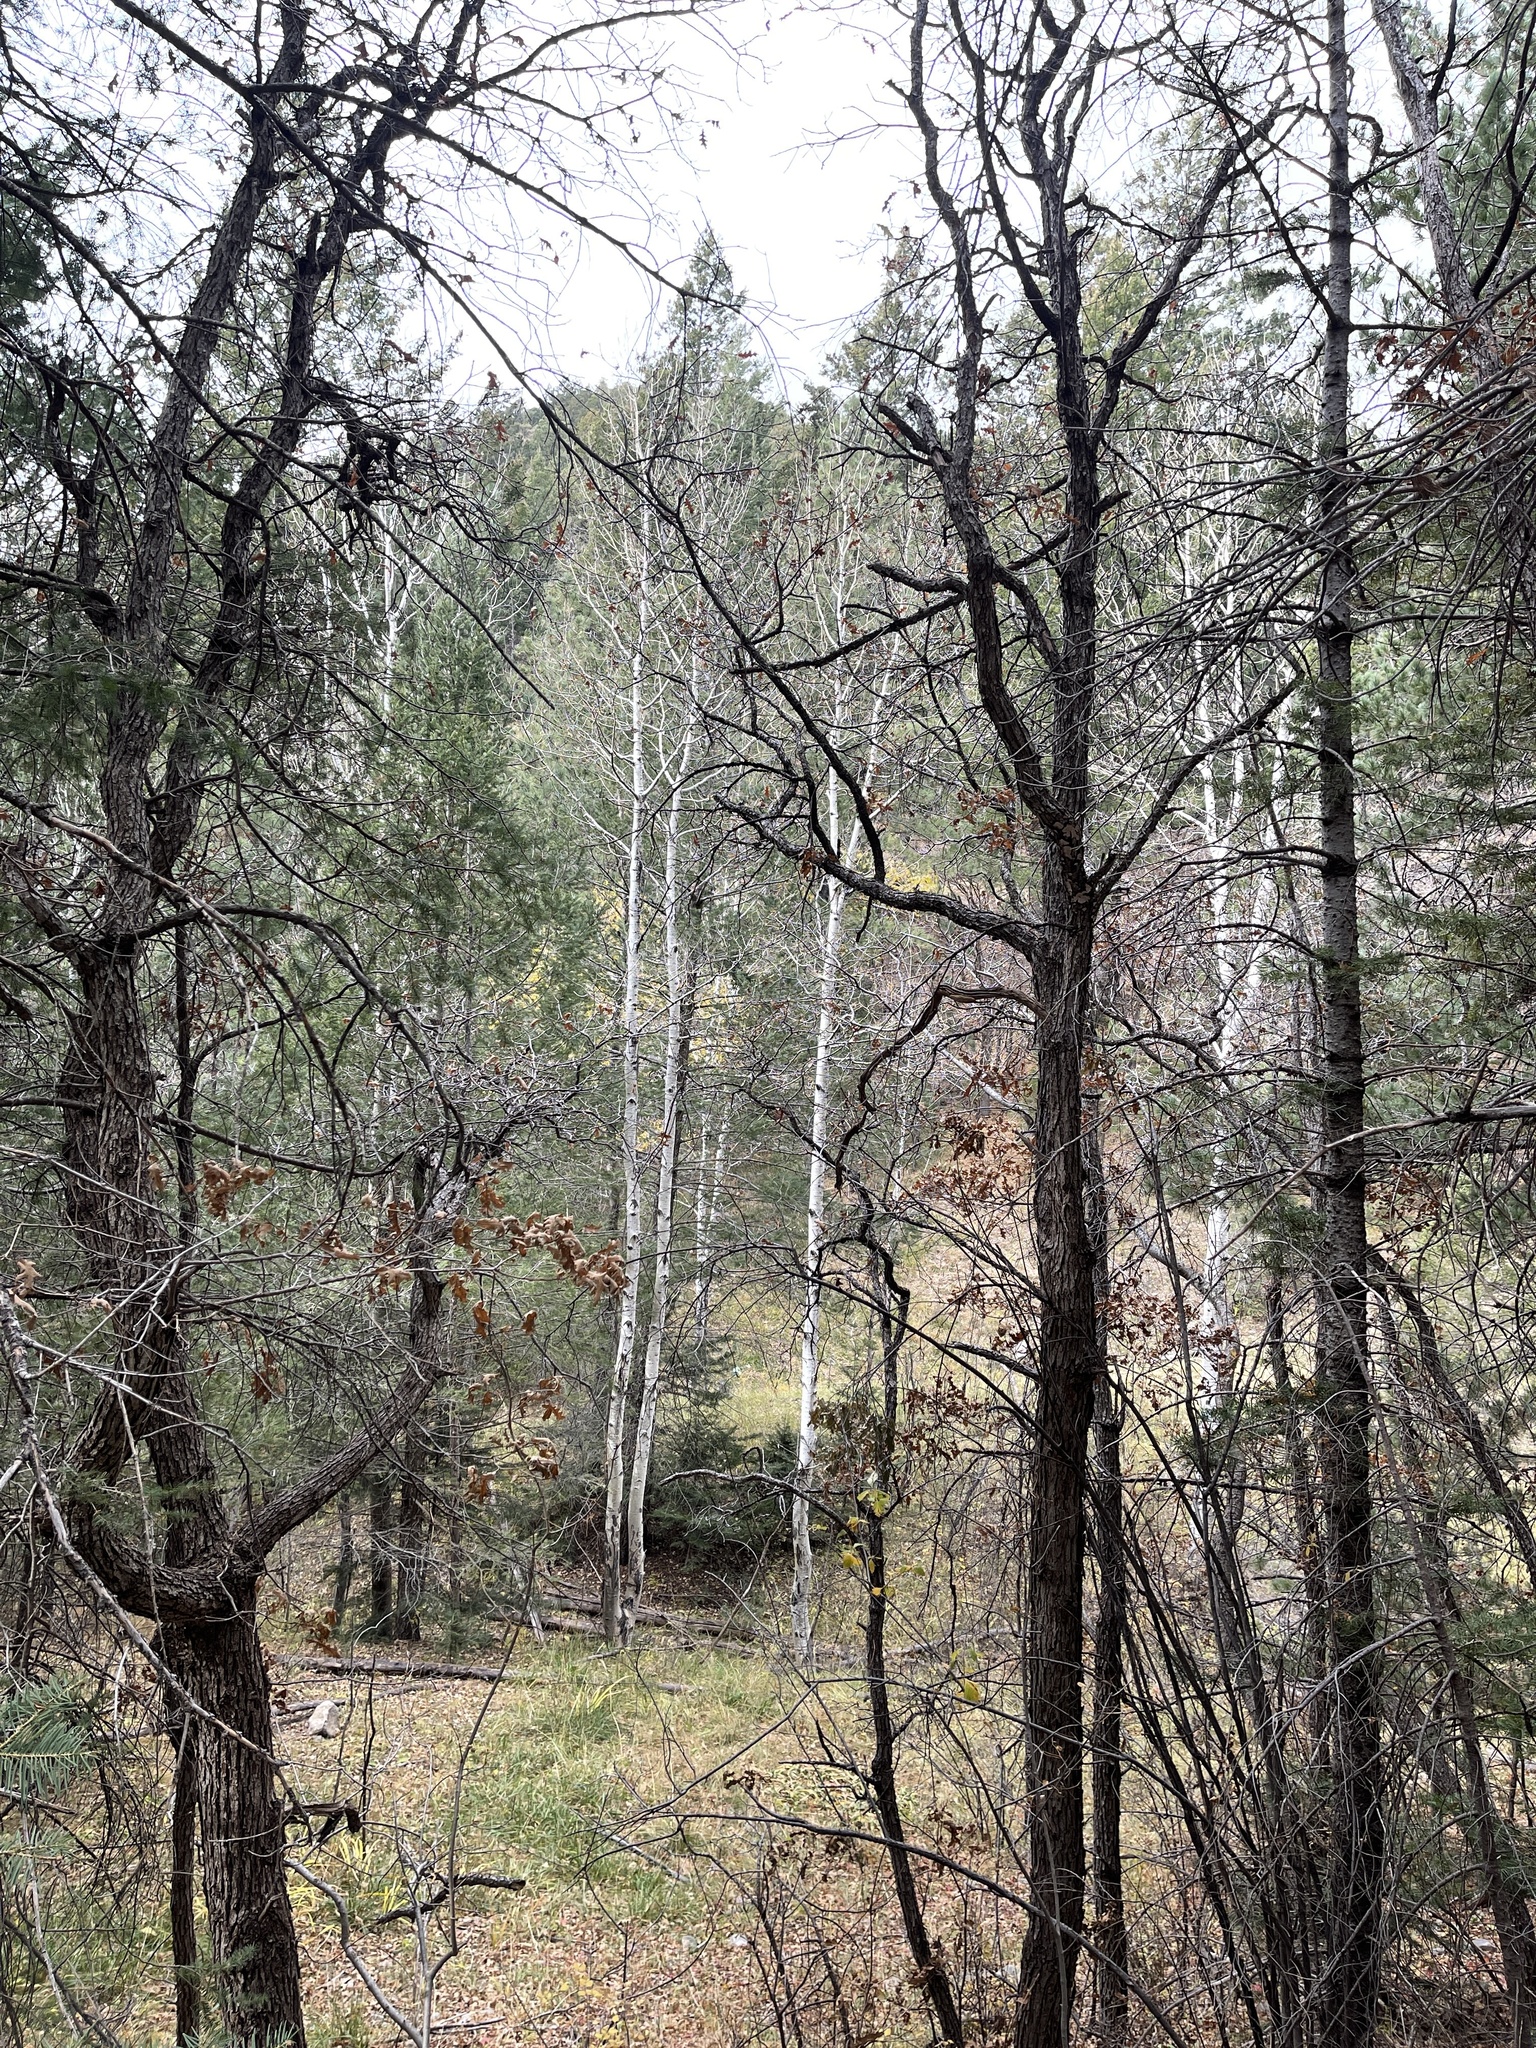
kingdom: Plantae
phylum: Tracheophyta
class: Magnoliopsida
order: Malpighiales
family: Salicaceae
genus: Populus
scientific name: Populus tremuloides
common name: Quaking aspen
